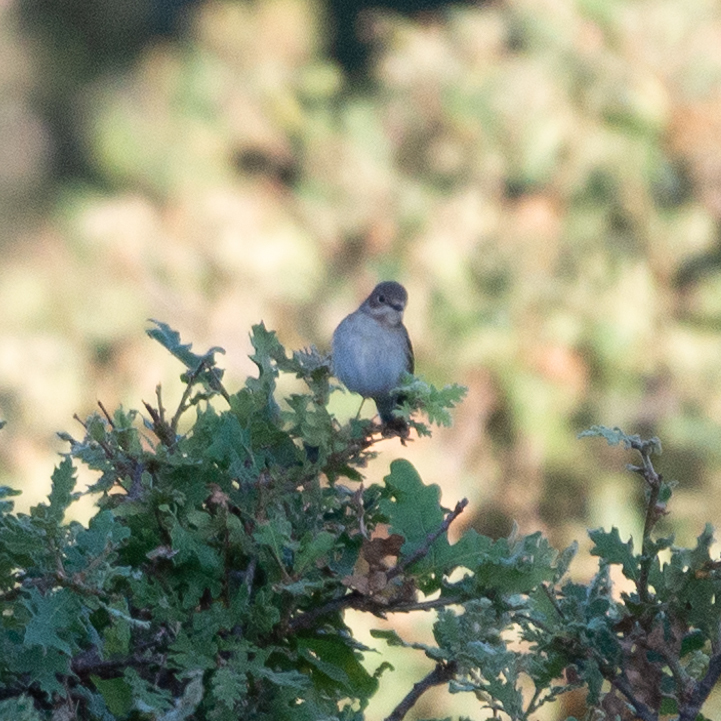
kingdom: Animalia
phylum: Chordata
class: Aves
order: Passeriformes
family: Muscicapidae
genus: Ficedula
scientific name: Ficedula hypoleuca
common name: European pied flycatcher
